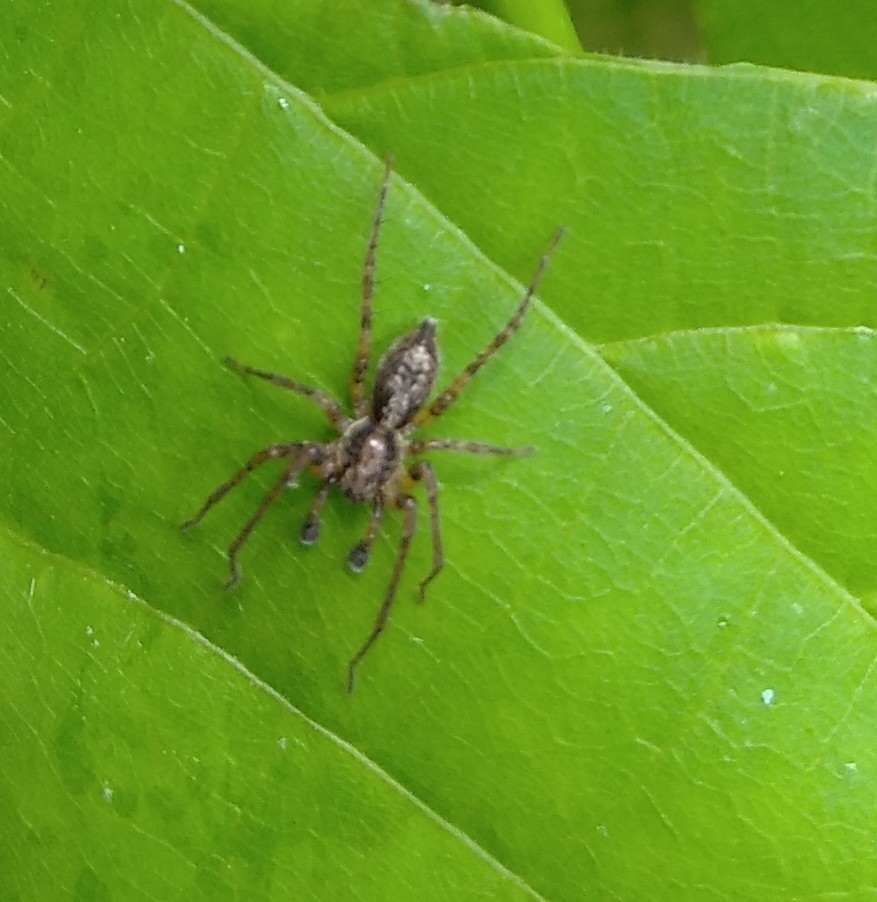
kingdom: Animalia
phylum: Arthropoda
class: Arachnida
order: Araneae
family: Anyphaenidae
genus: Anyphaena
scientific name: Anyphaena accentuata
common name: Buzzing spider
